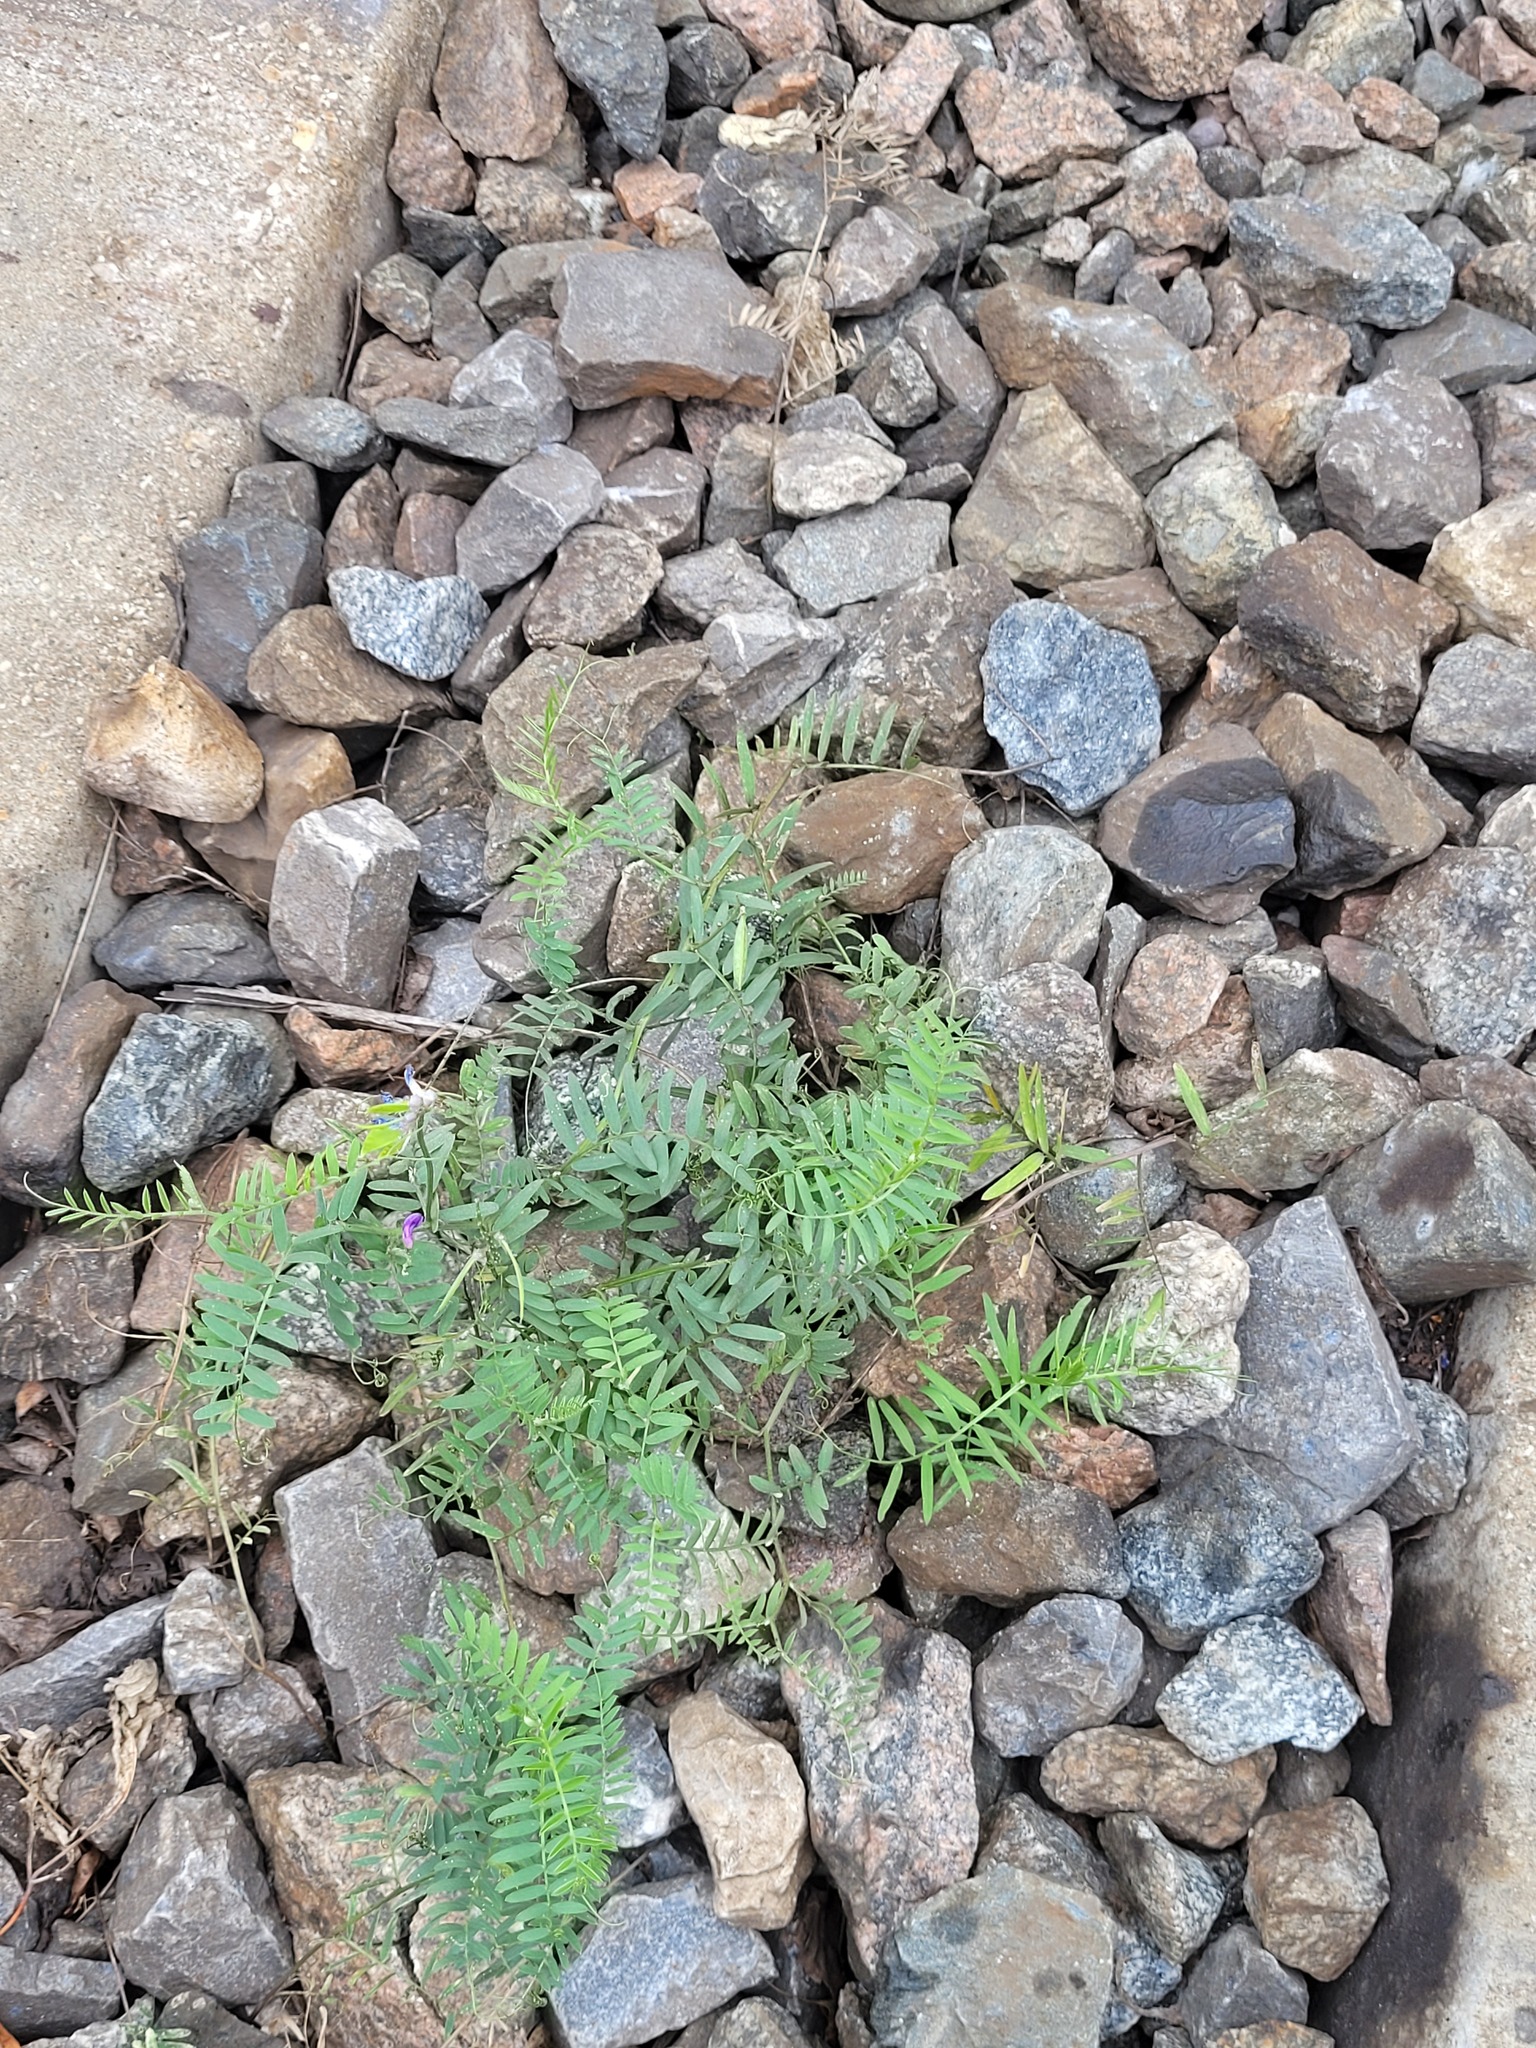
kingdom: Plantae
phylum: Tracheophyta
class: Magnoliopsida
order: Fabales
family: Fabaceae
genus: Vicia
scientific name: Vicia cracca
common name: Bird vetch
